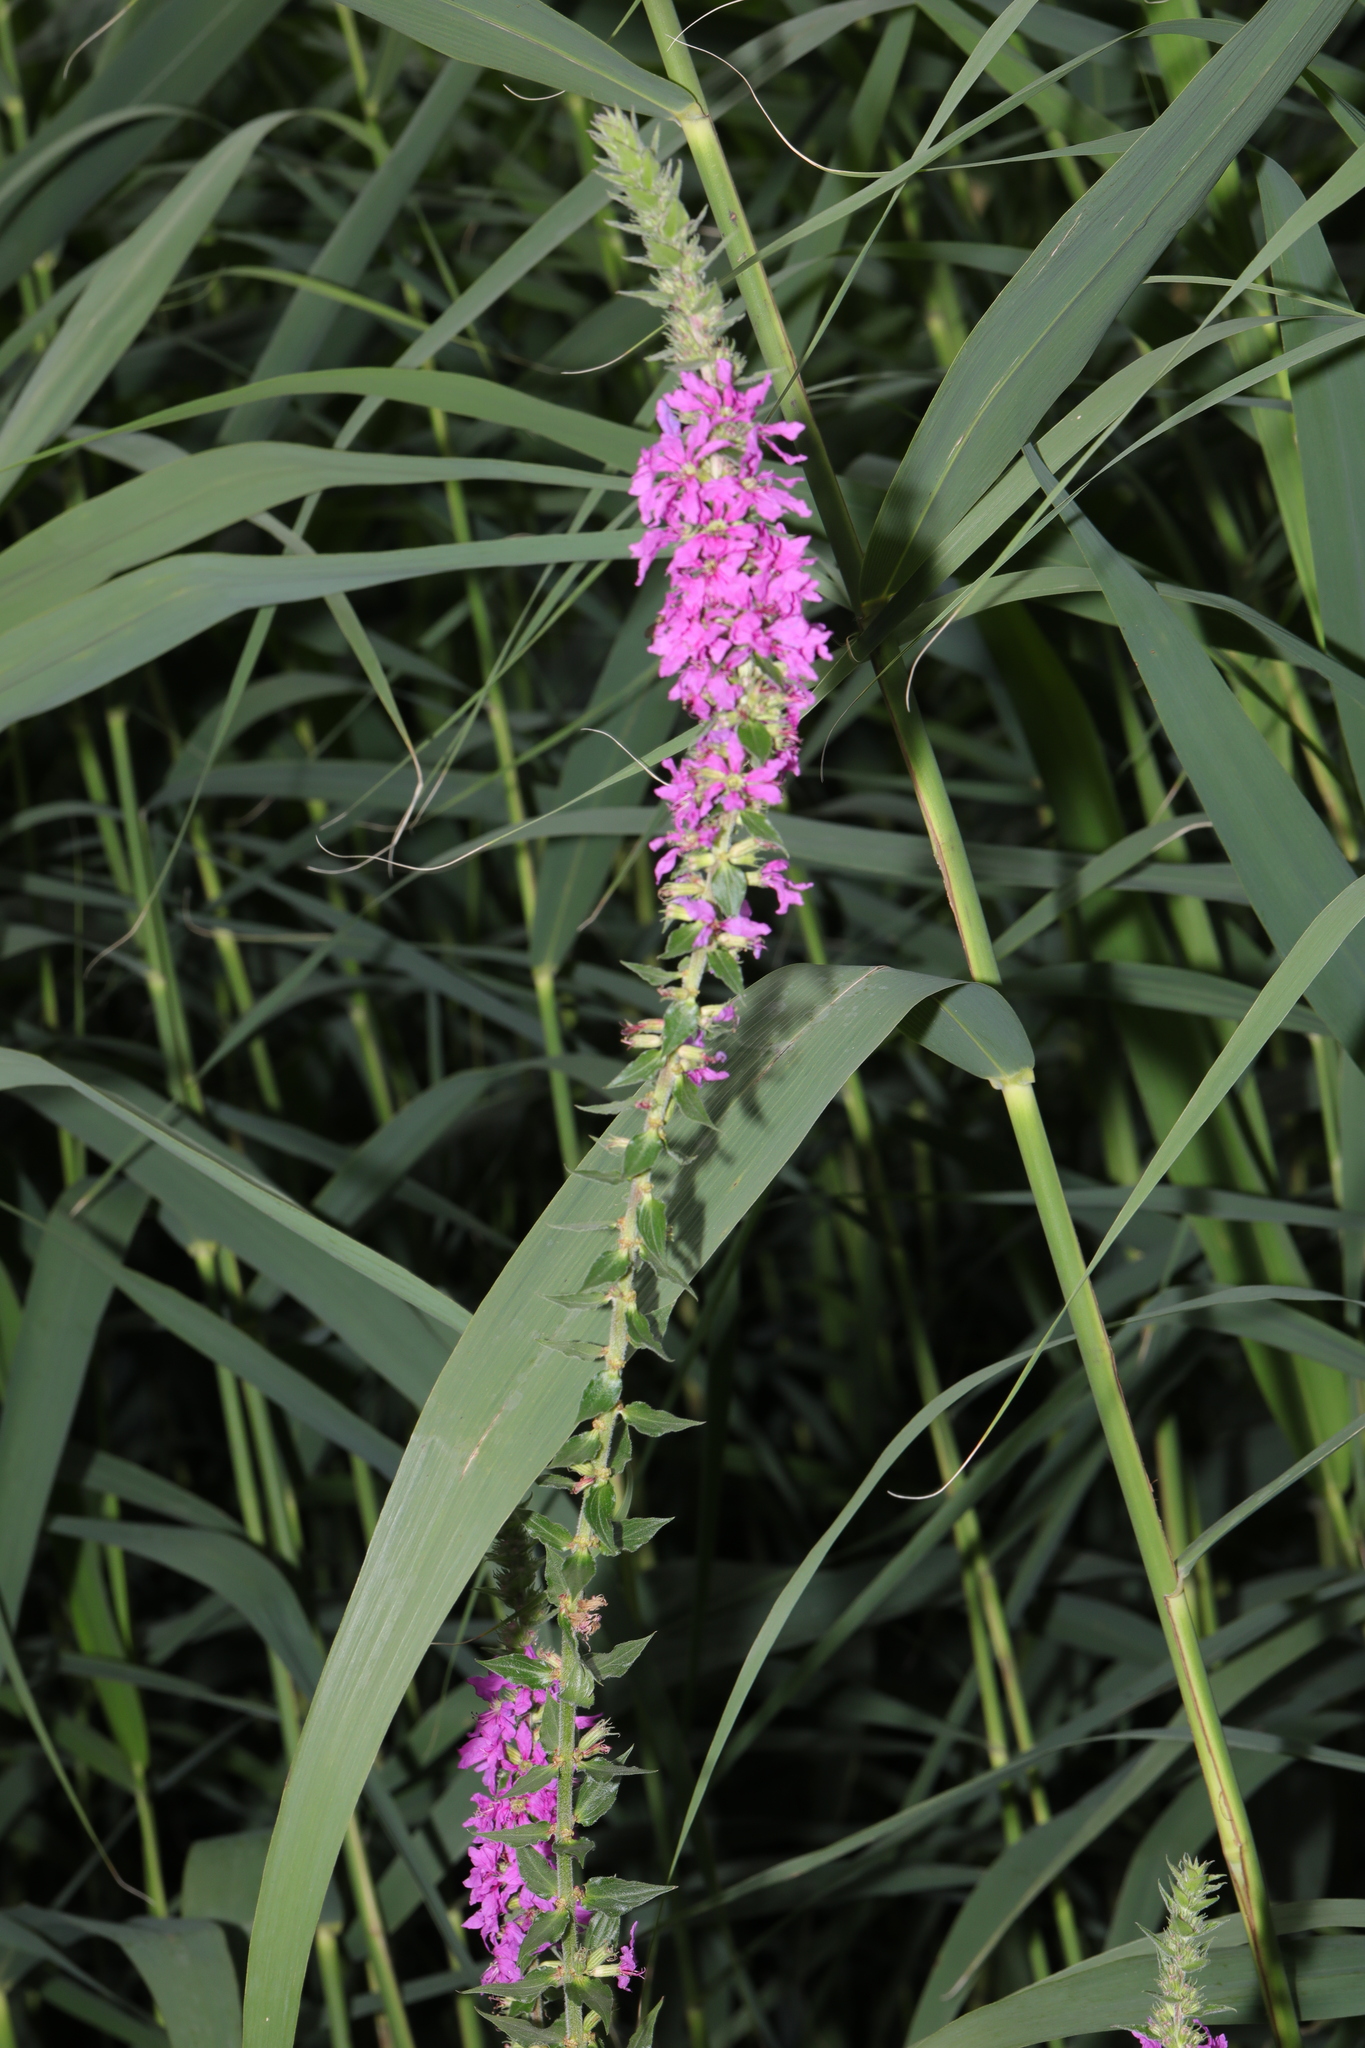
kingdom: Plantae
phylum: Tracheophyta
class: Magnoliopsida
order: Myrtales
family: Lythraceae
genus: Lythrum
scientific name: Lythrum salicaria
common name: Purple loosestrife
